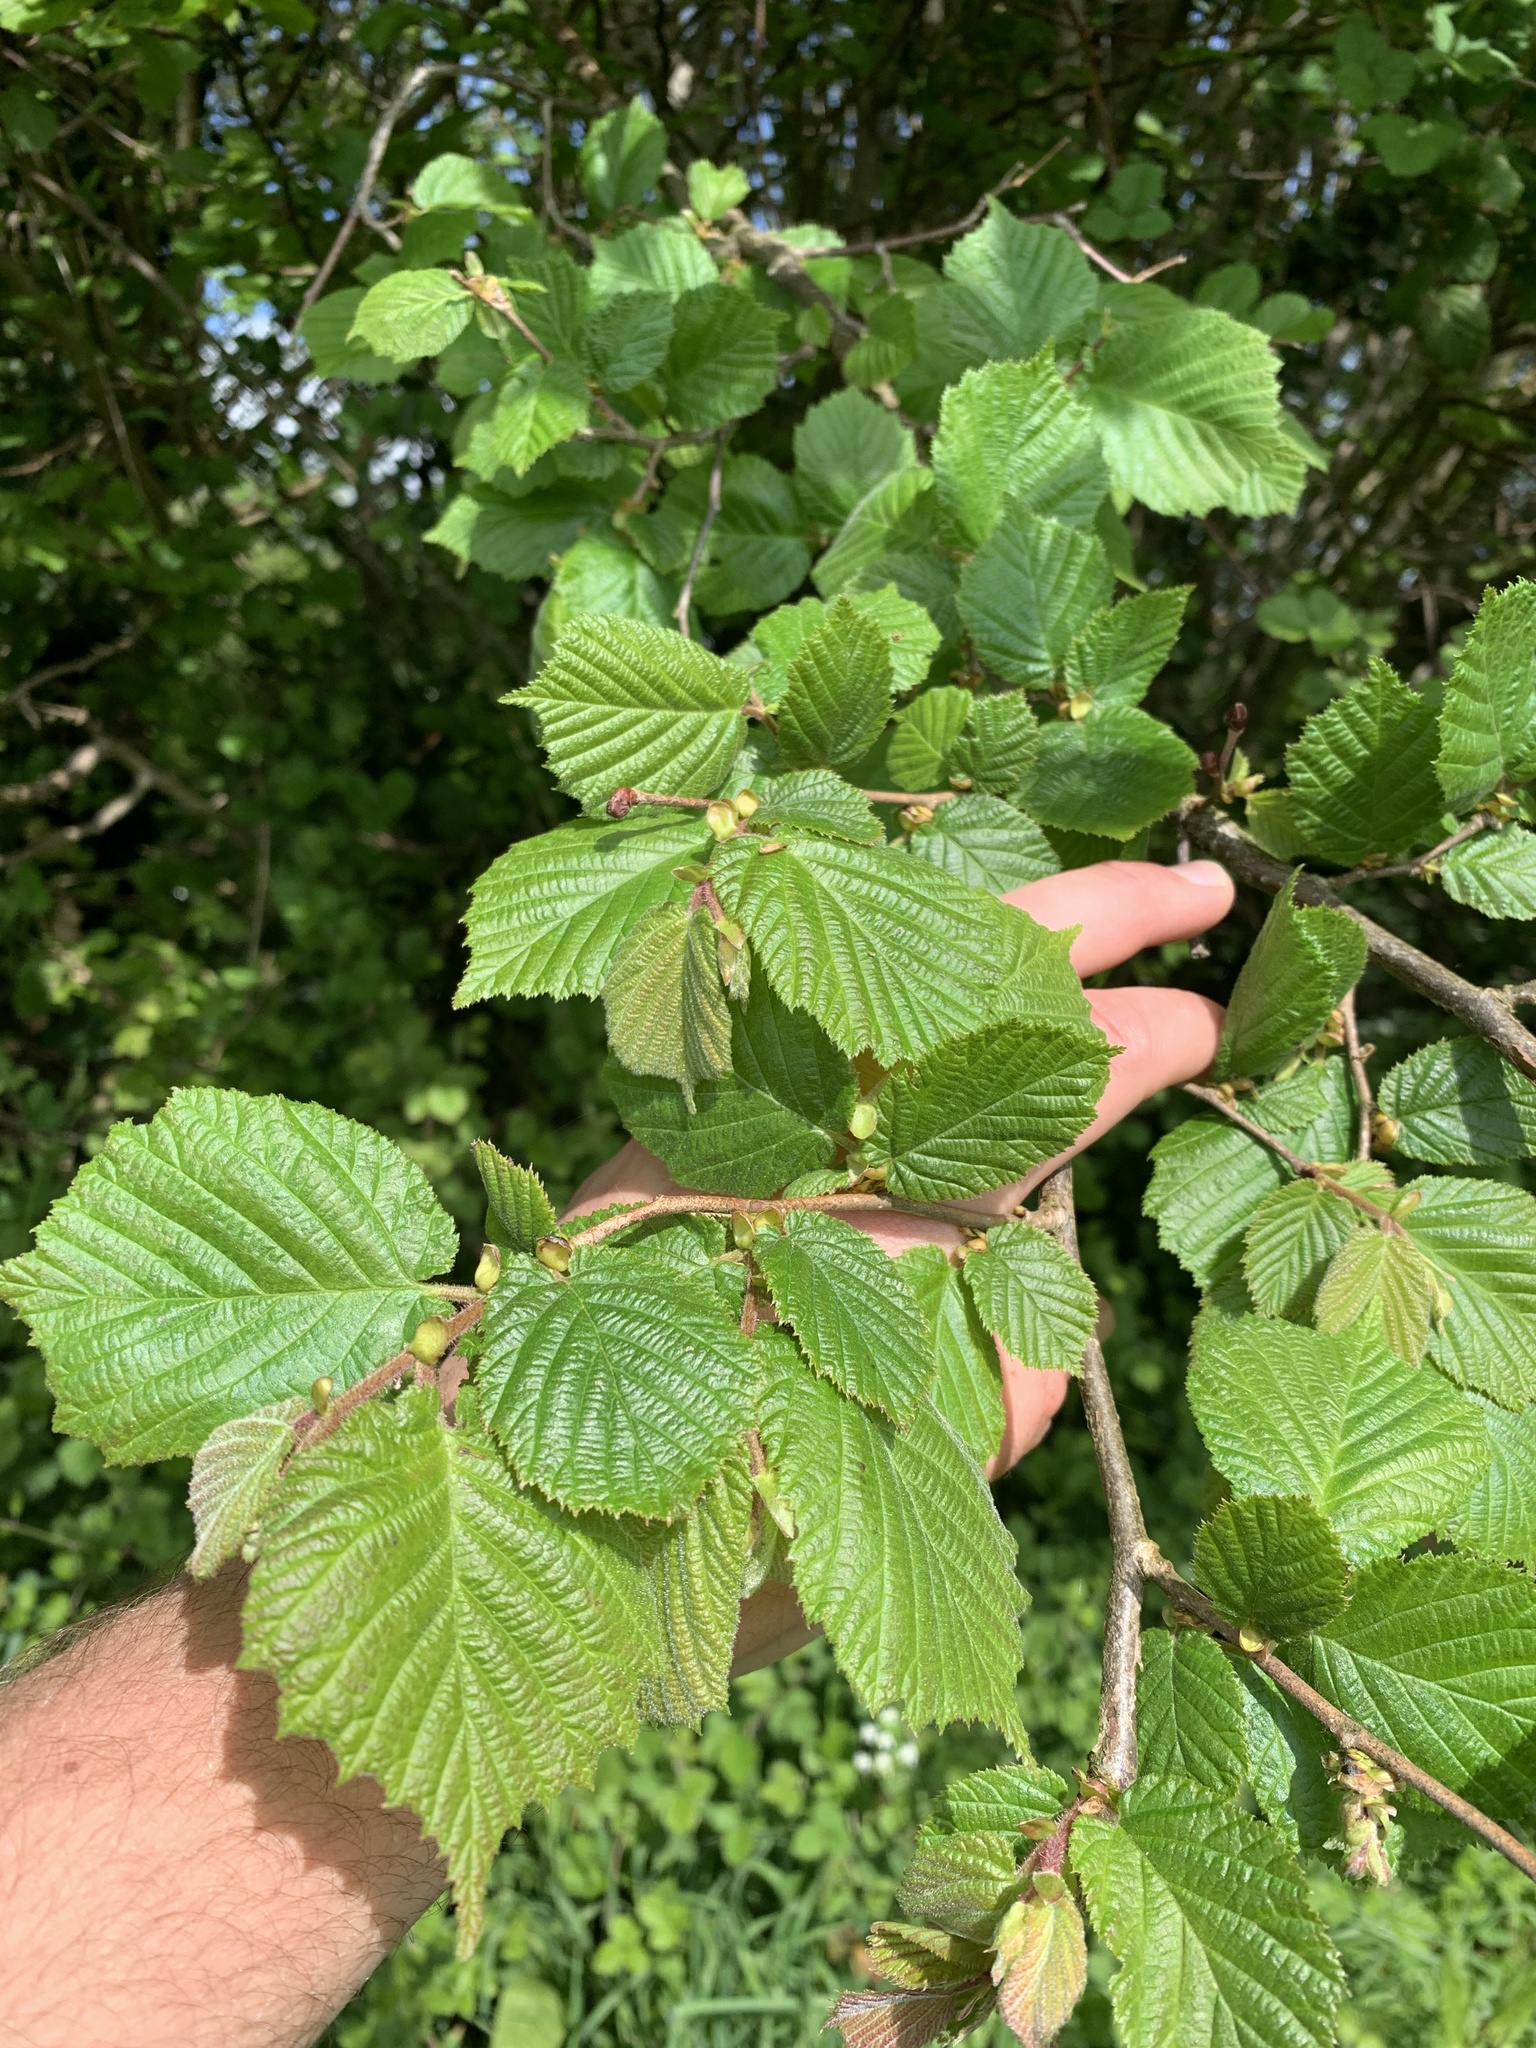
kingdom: Plantae
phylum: Tracheophyta
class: Magnoliopsida
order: Fagales
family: Betulaceae
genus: Corylus
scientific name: Corylus avellana
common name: European hazel
